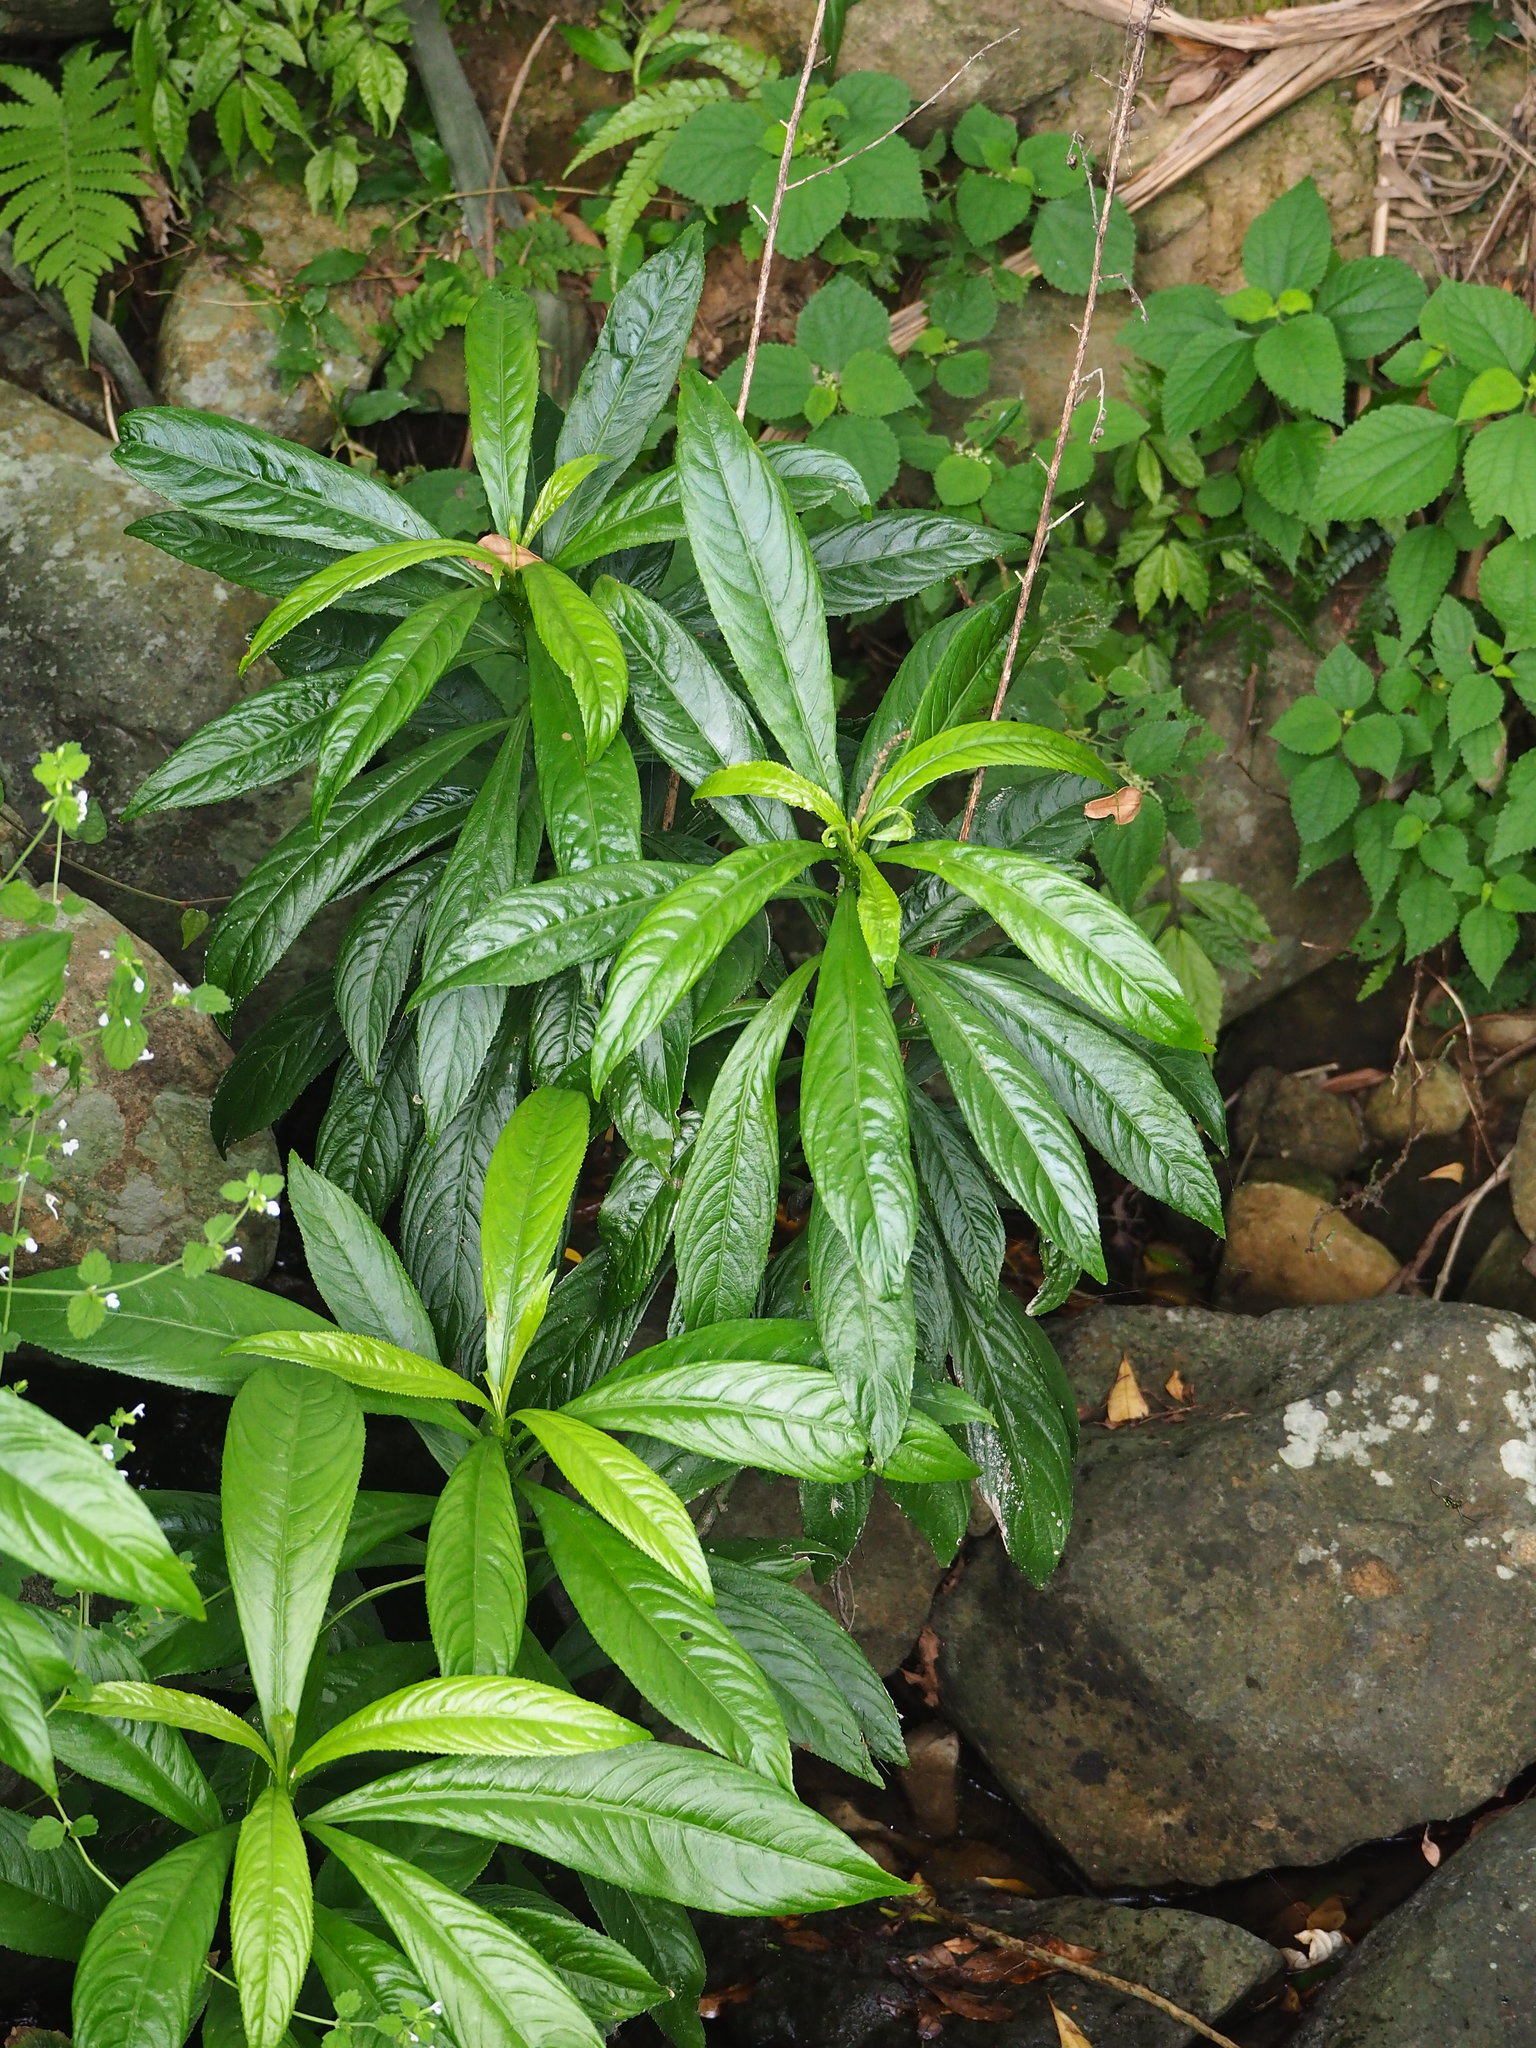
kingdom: Plantae
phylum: Tracheophyta
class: Magnoliopsida
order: Asterales
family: Asteraceae
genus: Blumea
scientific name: Blumea lanceolaria
